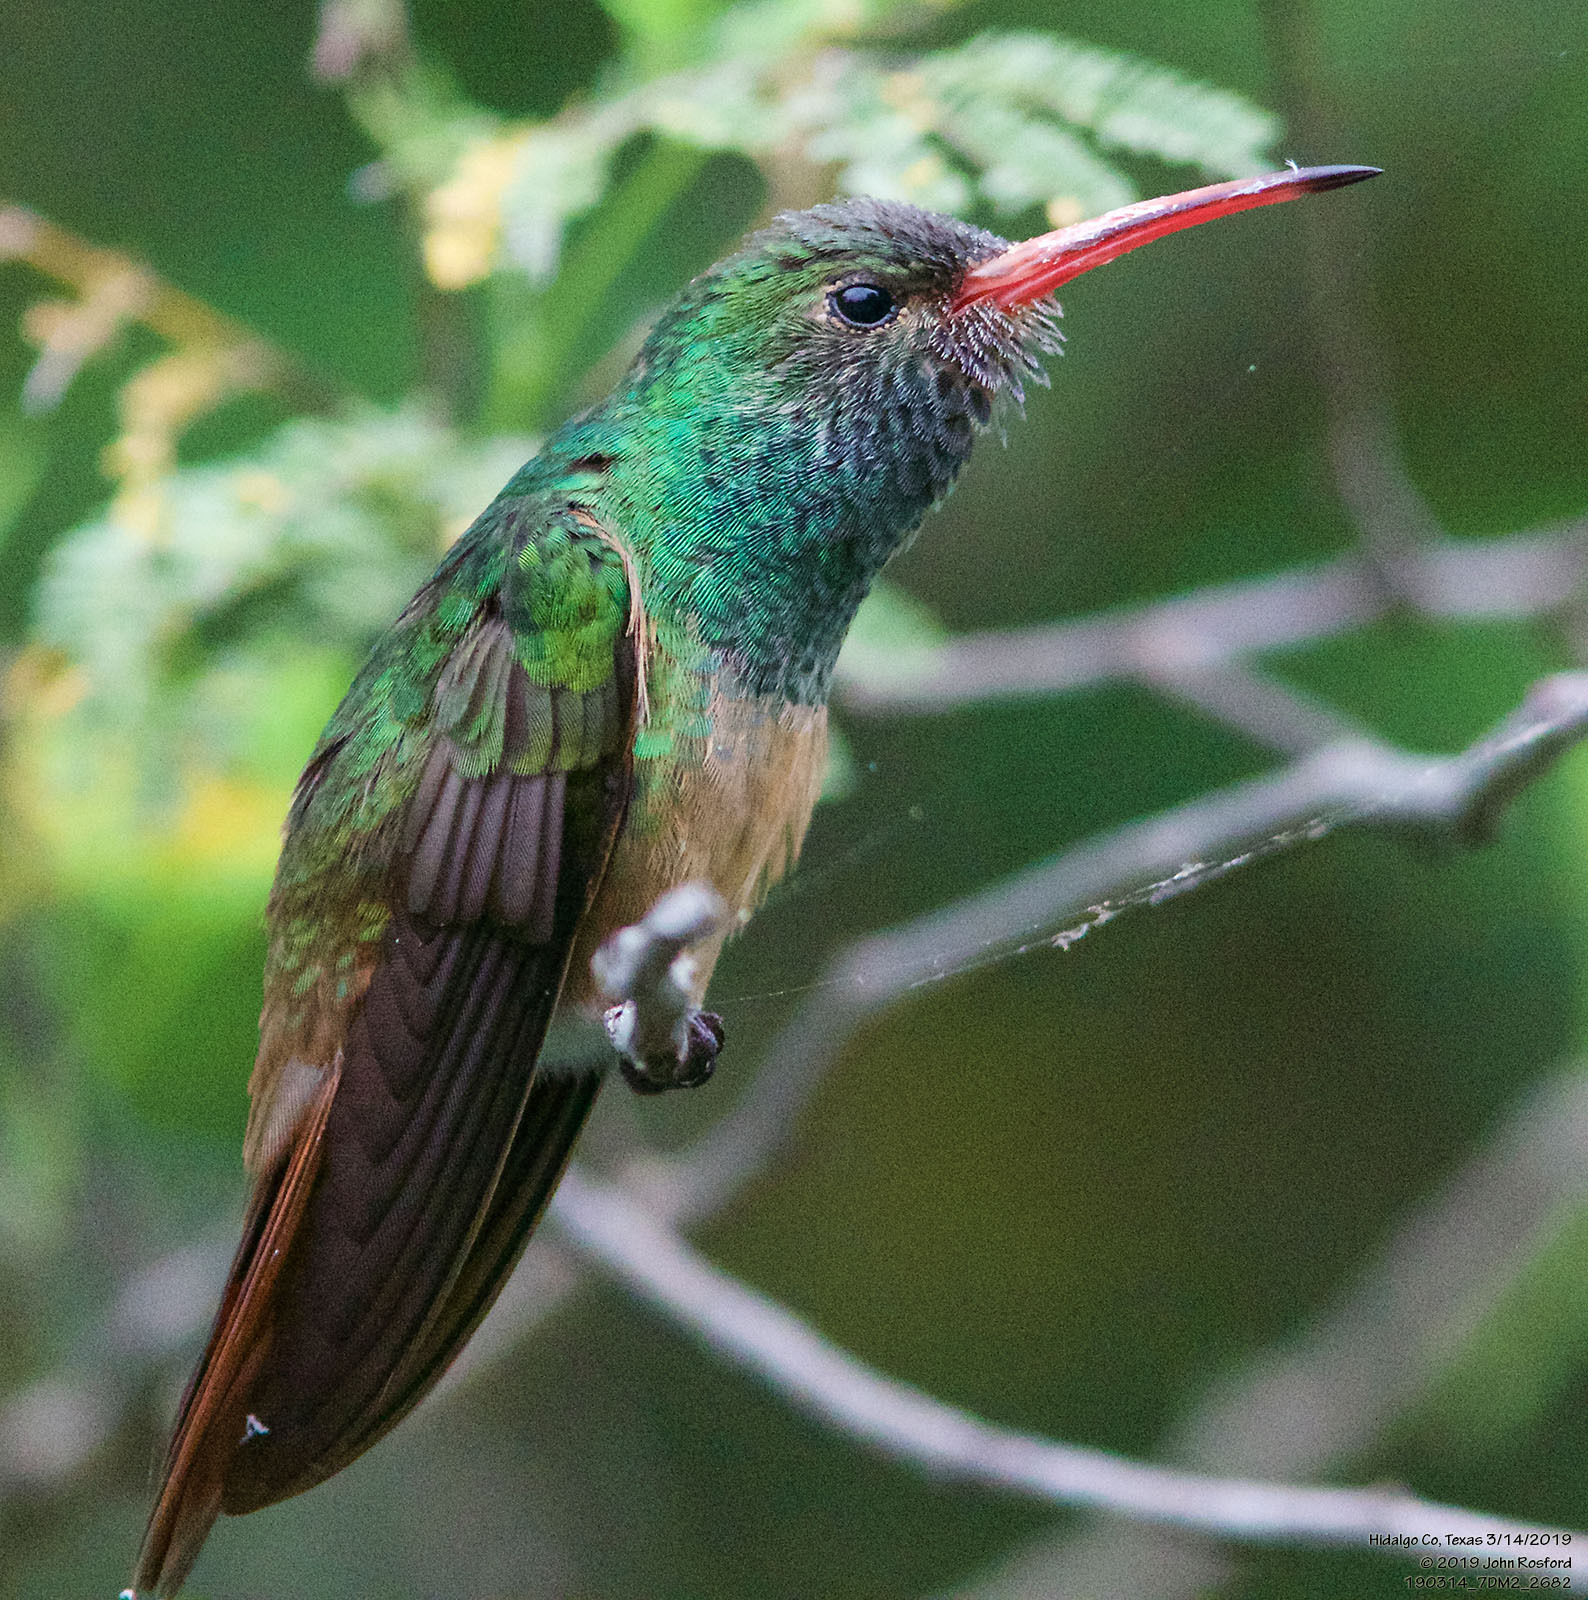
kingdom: Animalia
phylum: Chordata
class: Aves
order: Apodiformes
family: Trochilidae
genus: Amazilia
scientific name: Amazilia yucatanensis
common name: Buff-bellied hummingbird
